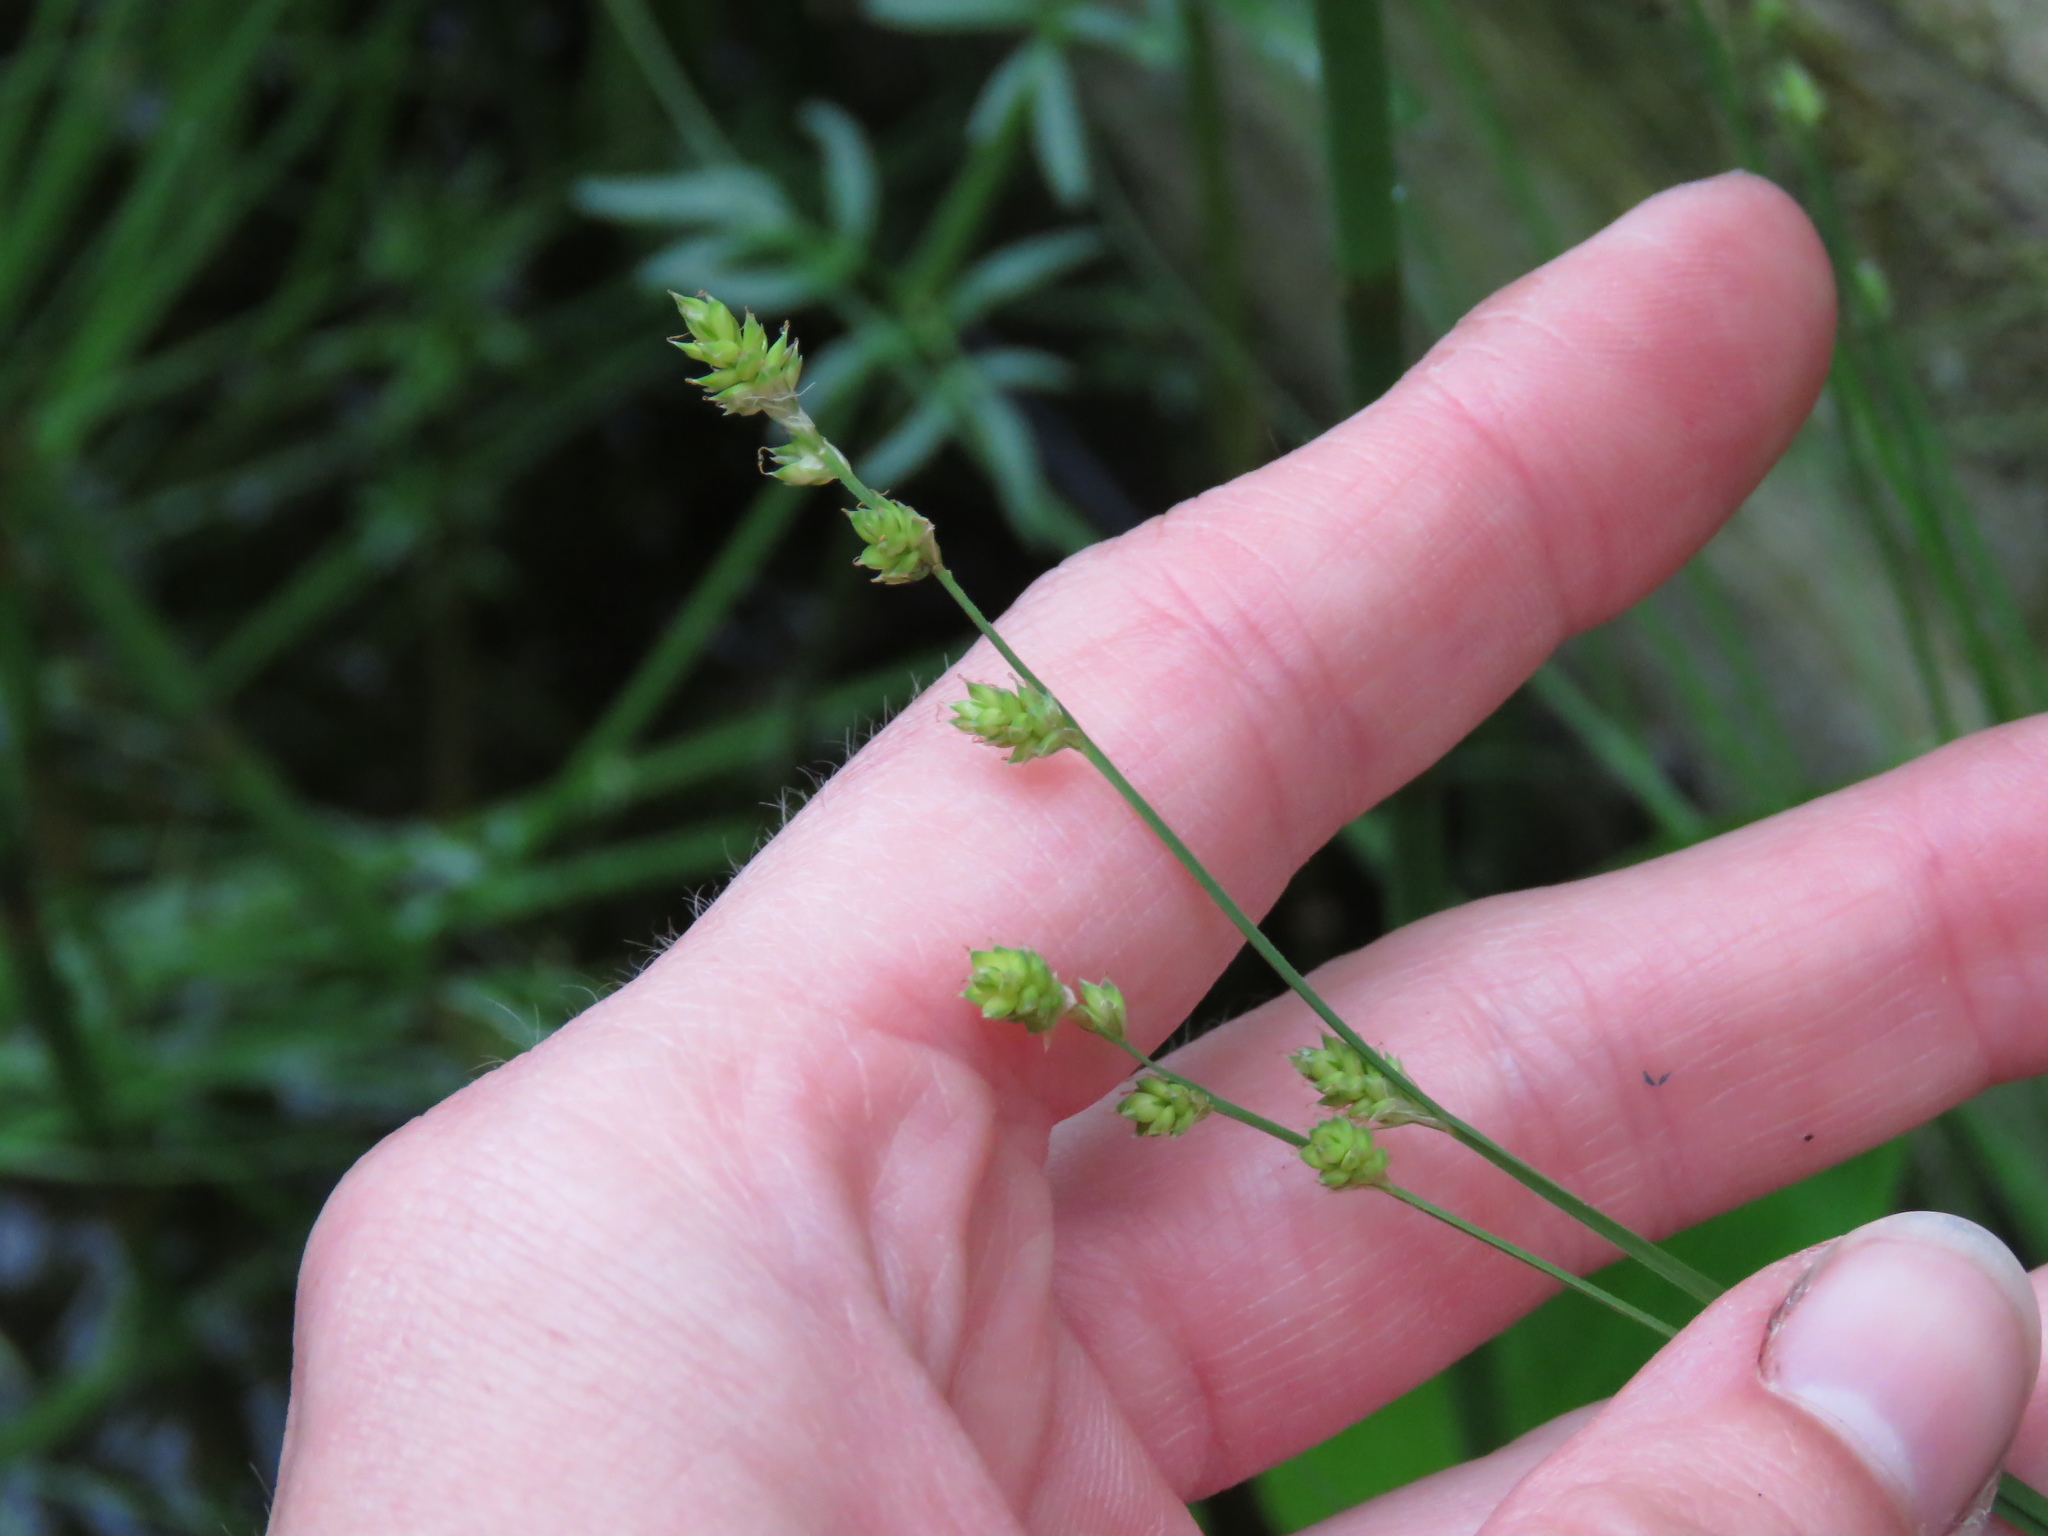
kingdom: Plantae
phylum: Tracheophyta
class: Liliopsida
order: Poales
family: Cyperaceae
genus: Carex
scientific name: Carex canescens
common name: White sedge
